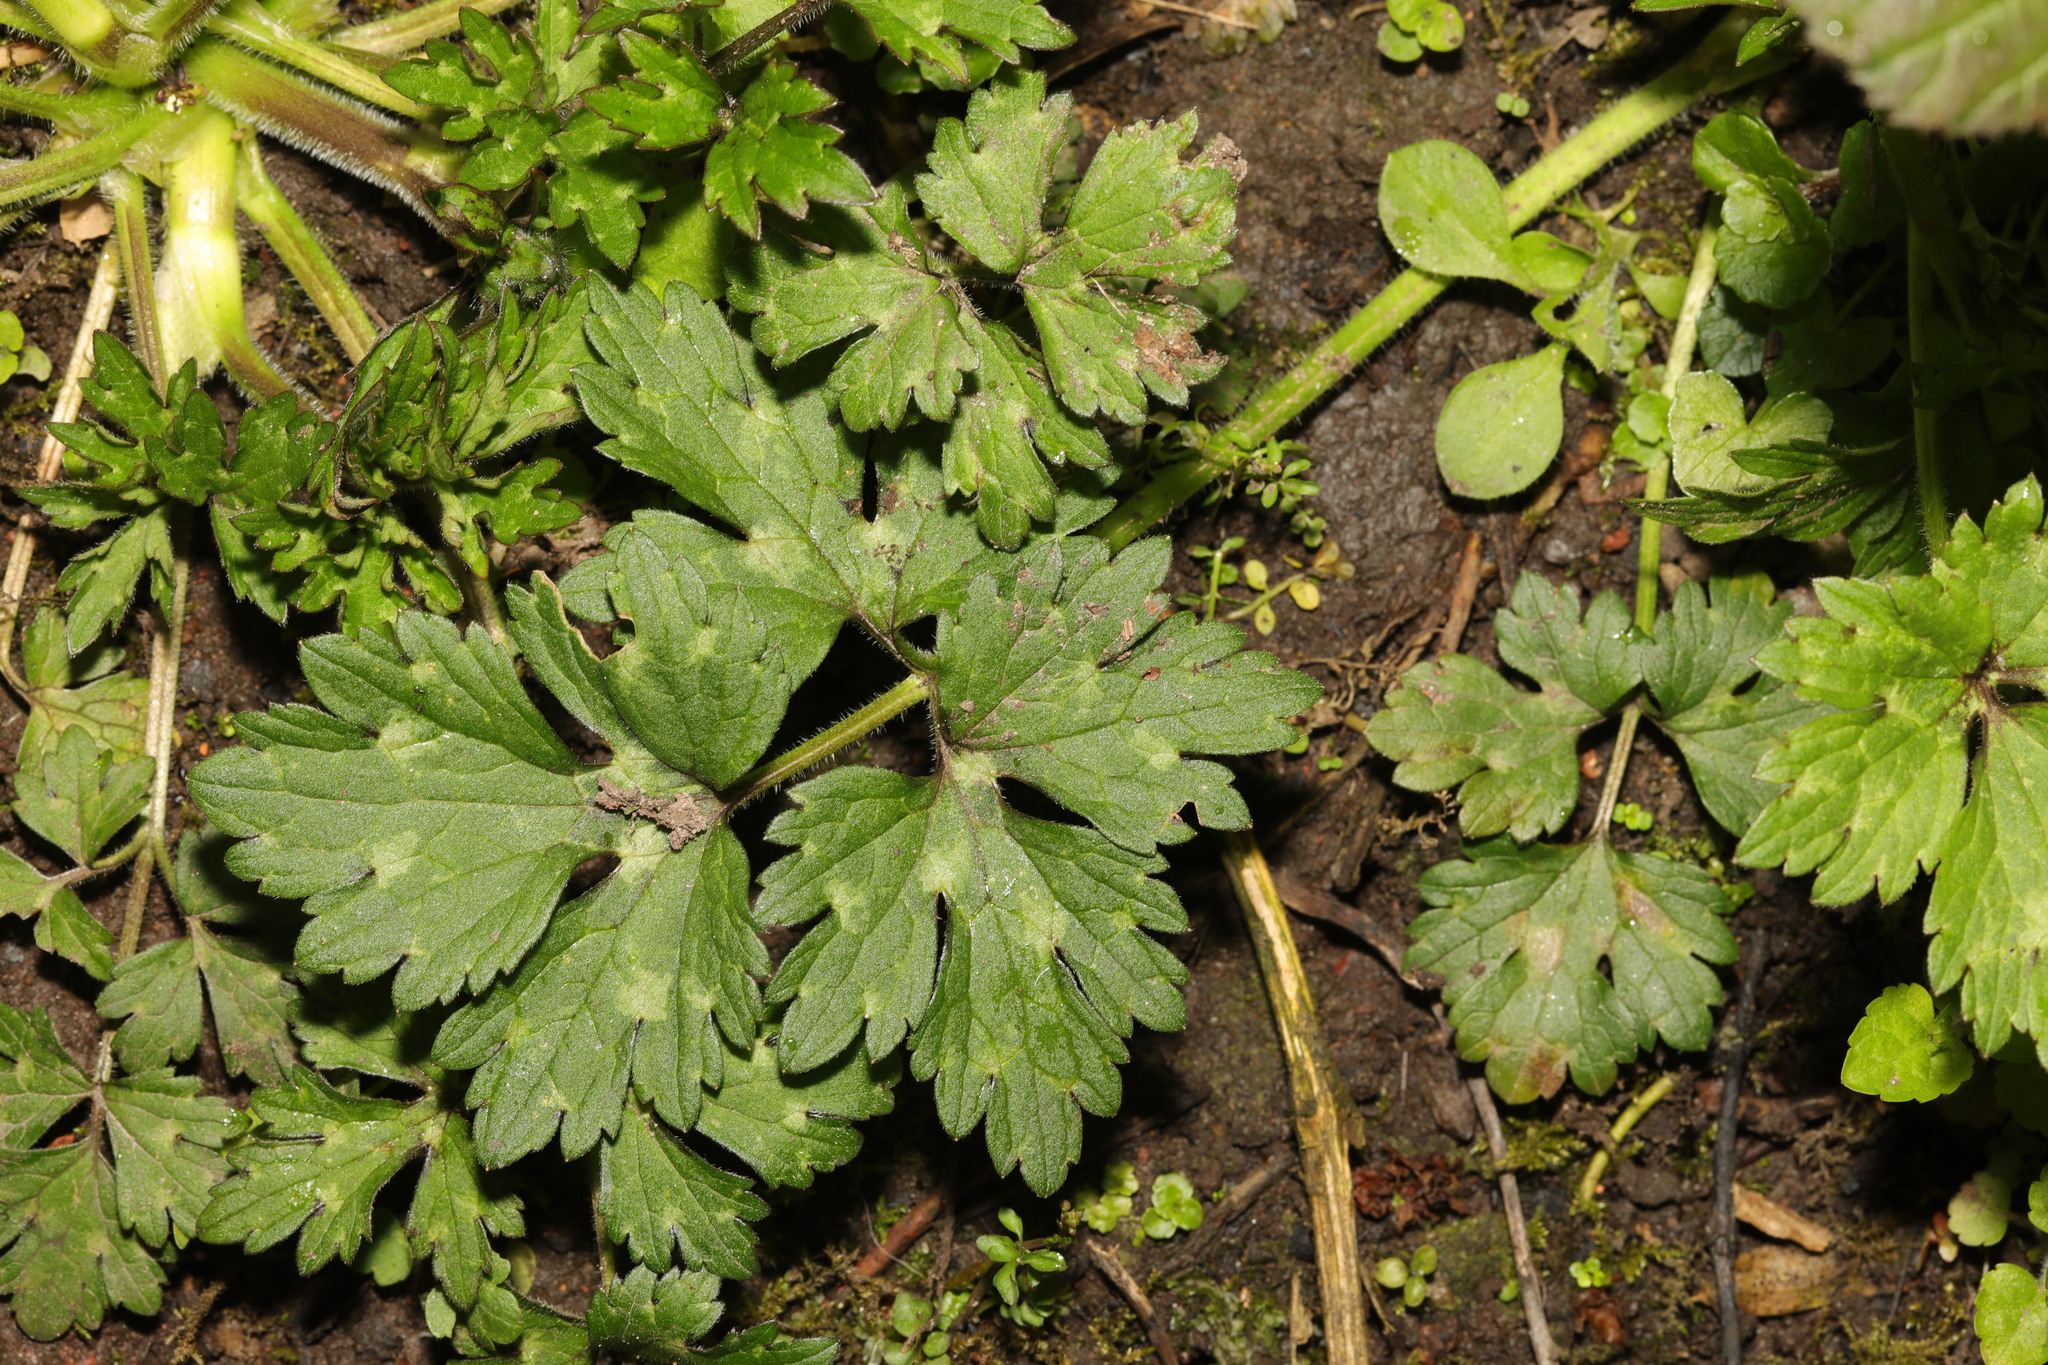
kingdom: Plantae
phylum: Tracheophyta
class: Magnoliopsida
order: Ranunculales
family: Ranunculaceae
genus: Ranunculus
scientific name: Ranunculus repens
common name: Creeping buttercup
